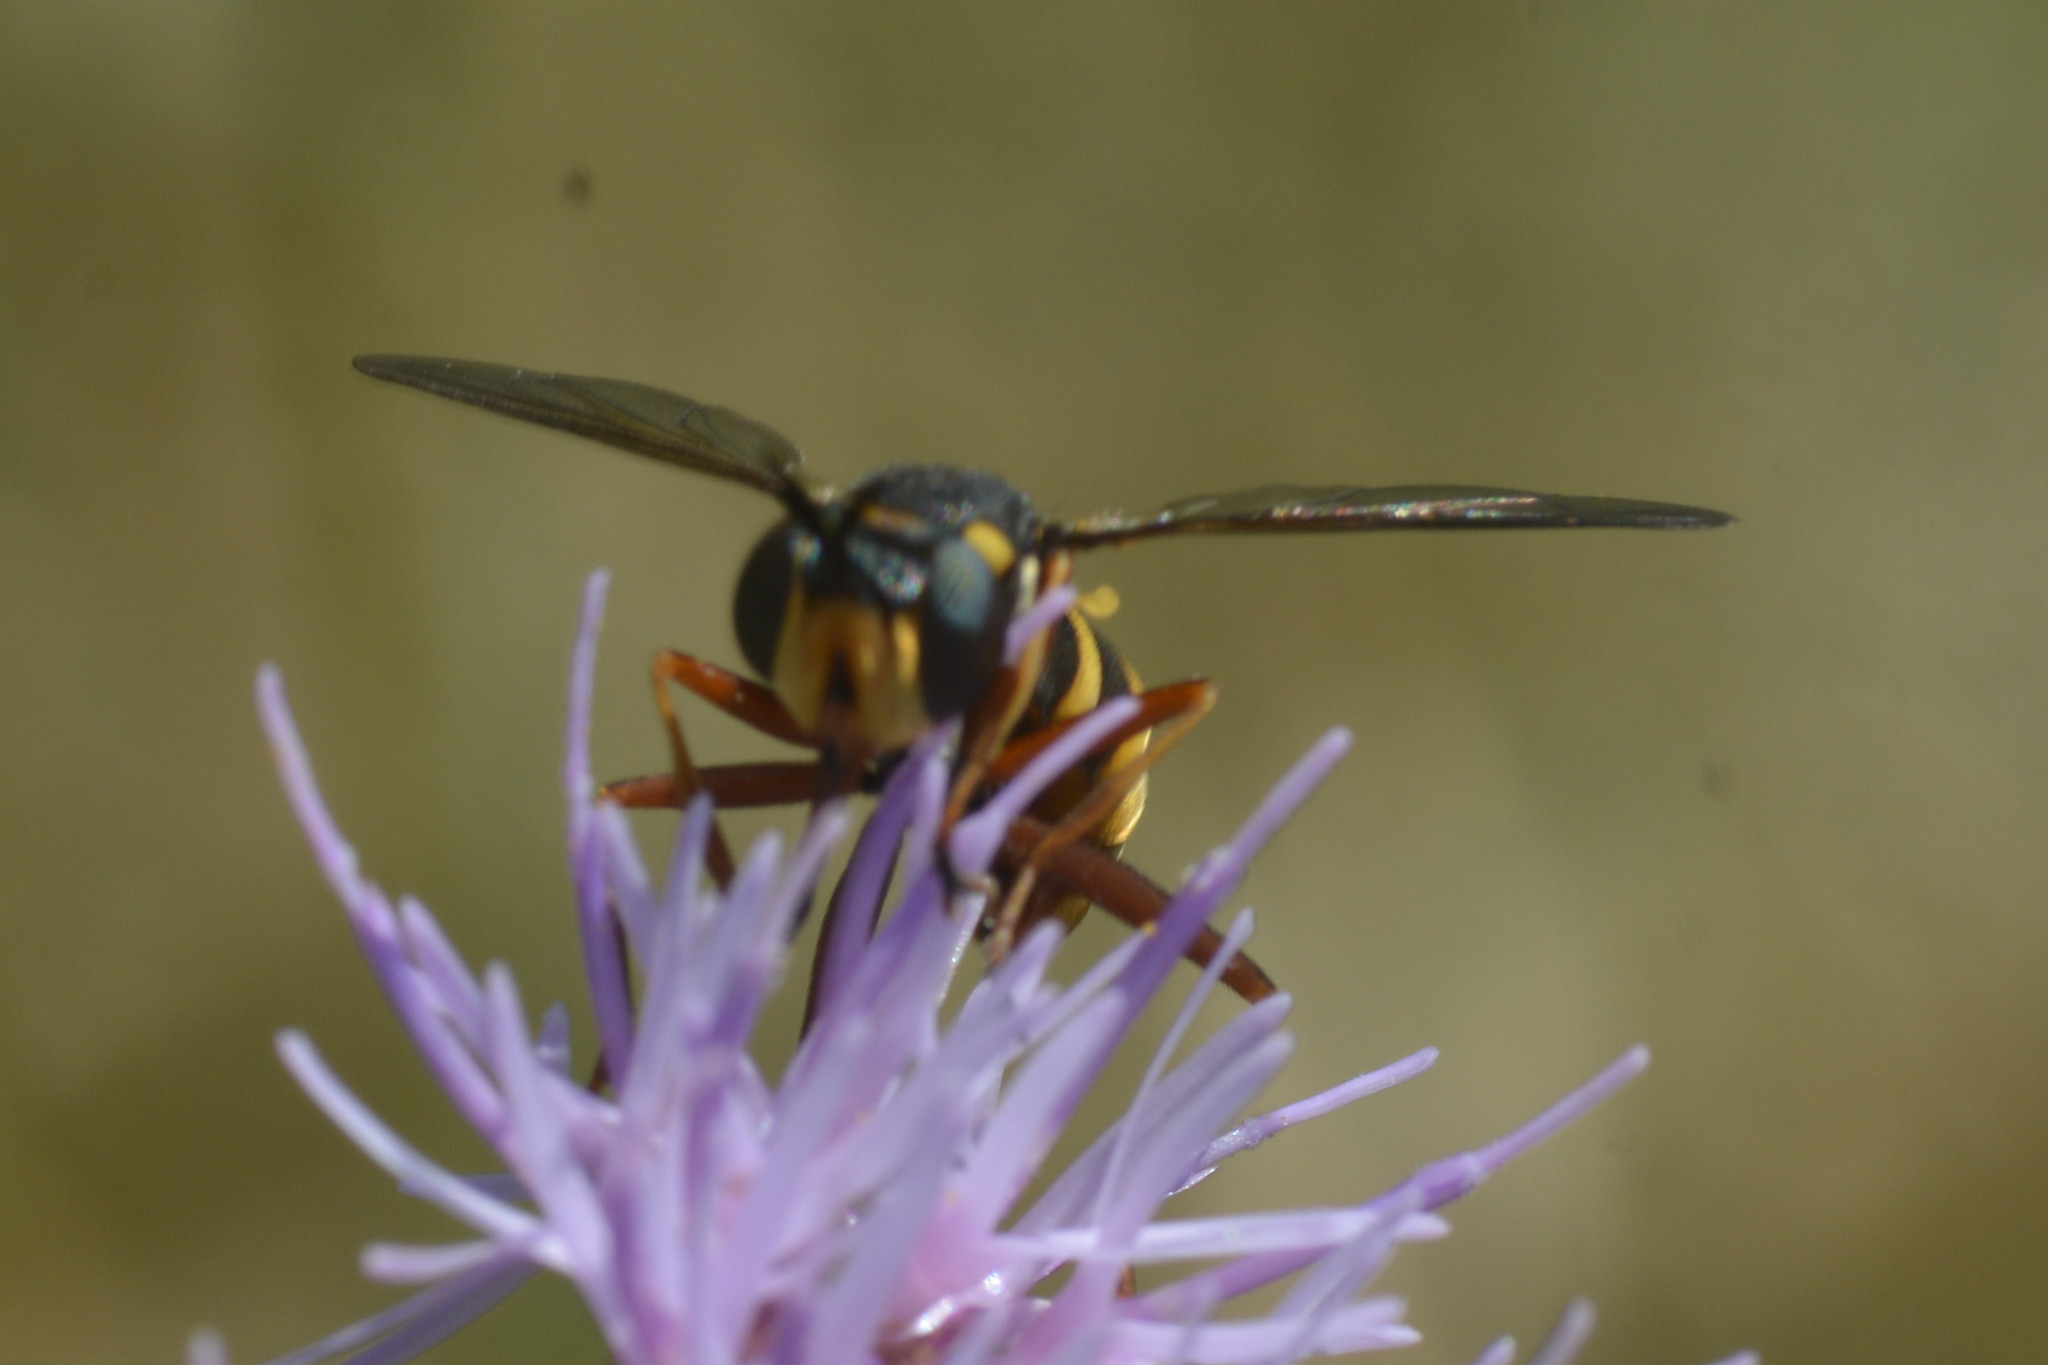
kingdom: Animalia
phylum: Arthropoda
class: Insecta
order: Diptera
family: Conopidae
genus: Conops
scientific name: Conops quadrifasciatus
